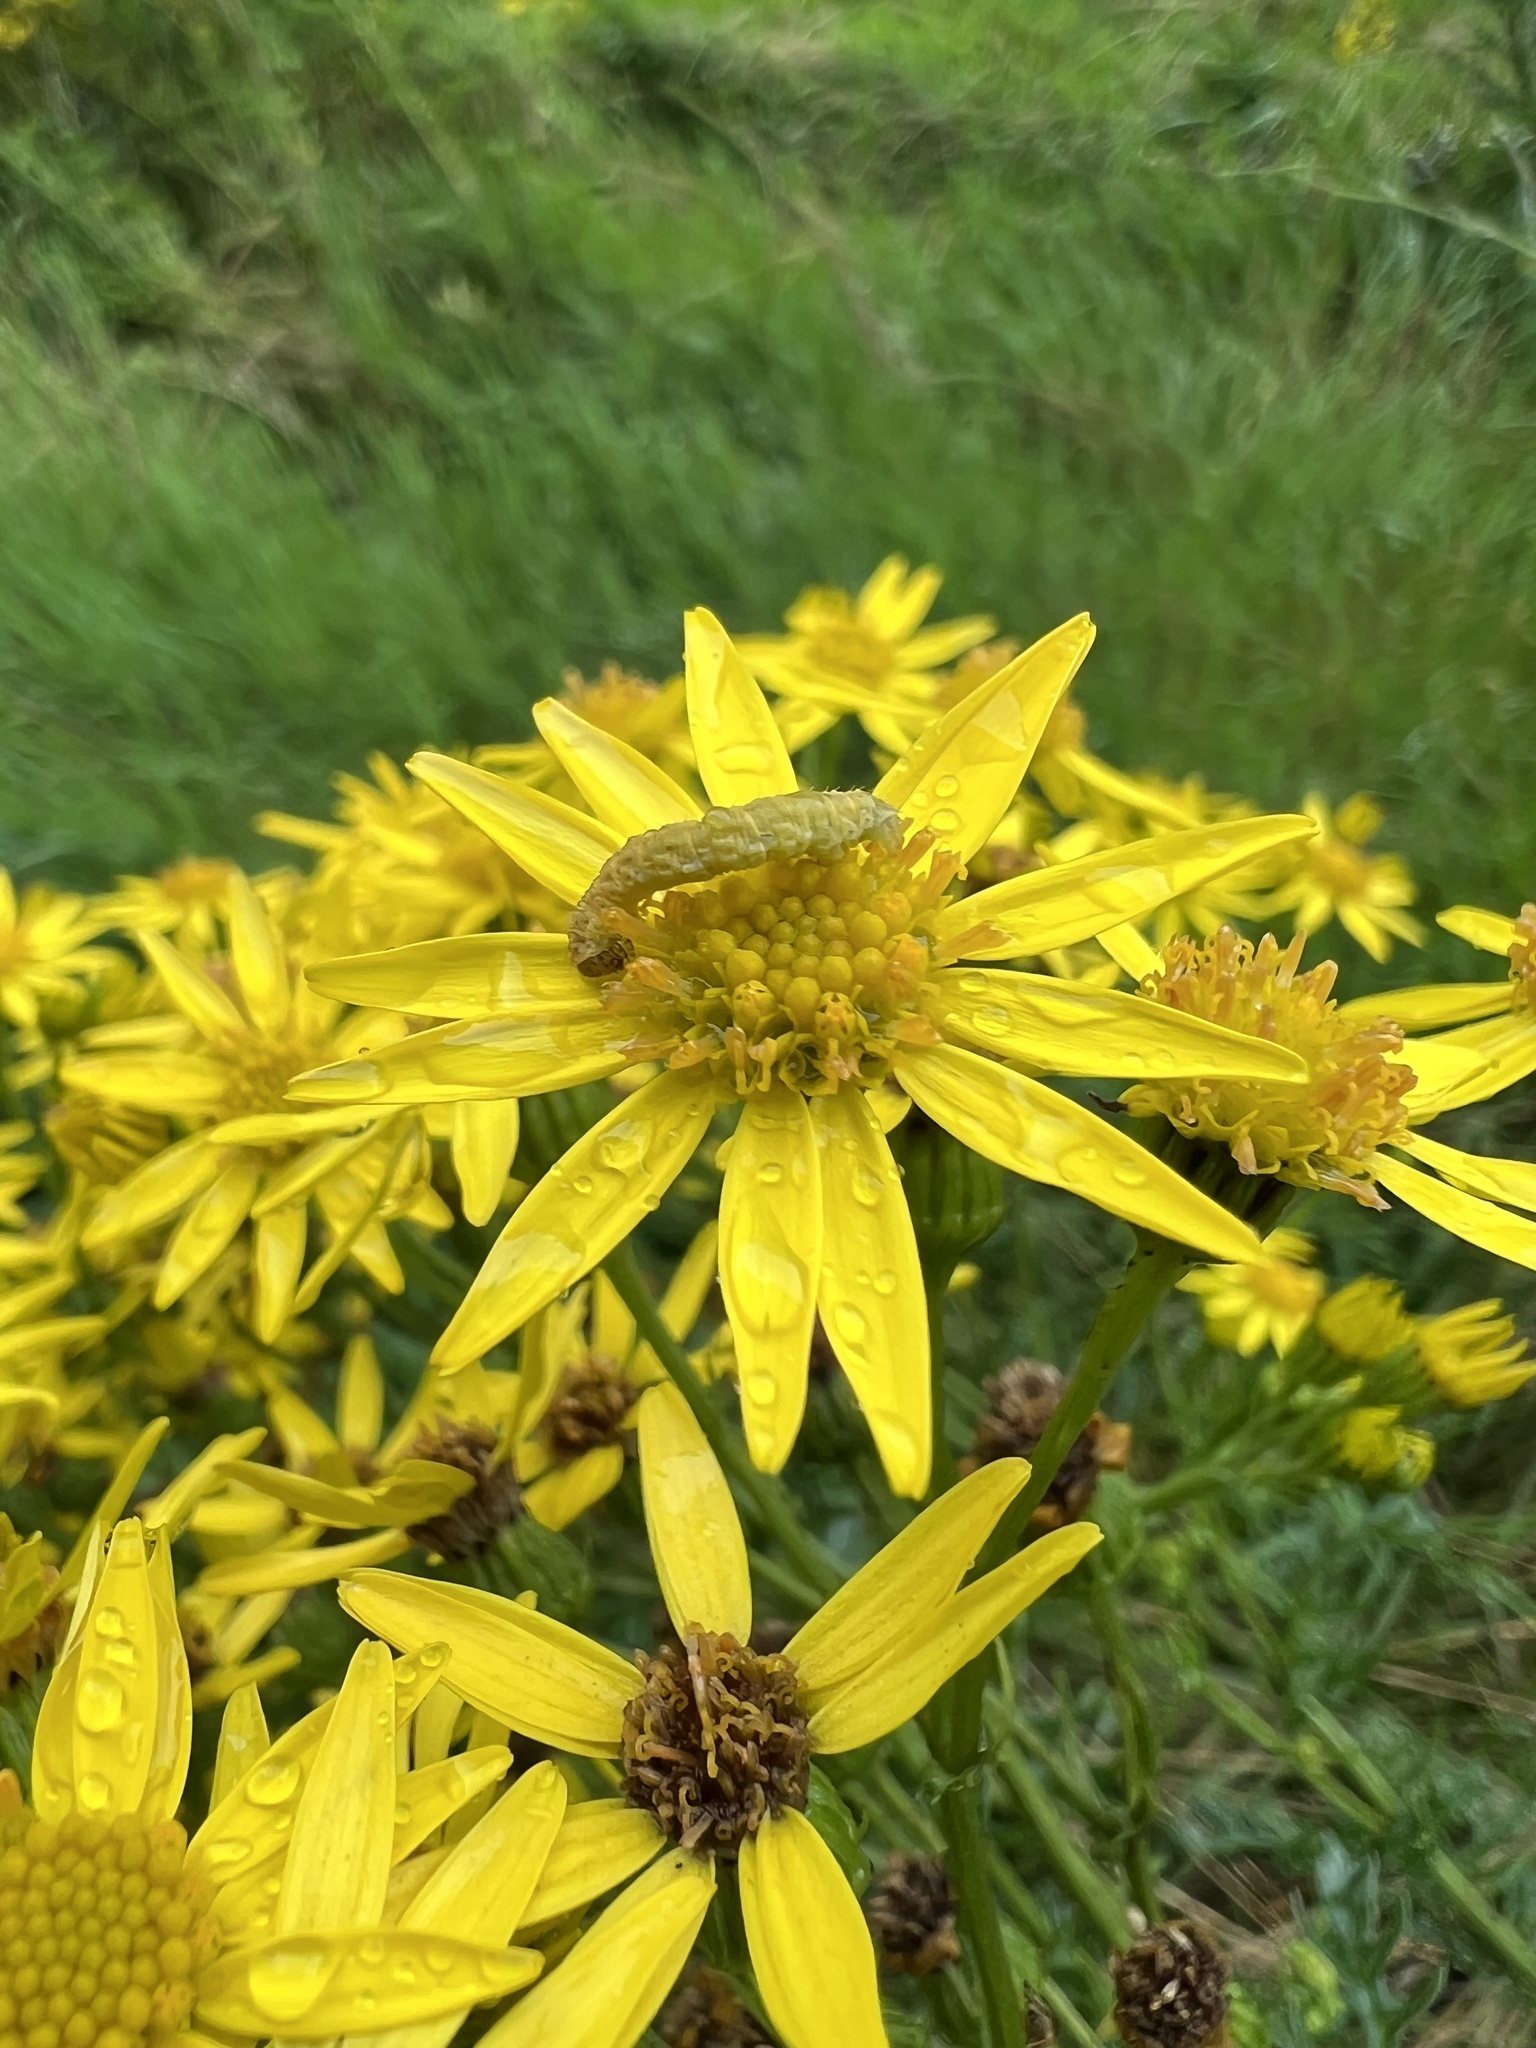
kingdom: Plantae
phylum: Tracheophyta
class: Magnoliopsida
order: Asterales
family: Asteraceae
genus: Jacobaea
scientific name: Jacobaea vulgaris
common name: Stinking willie
